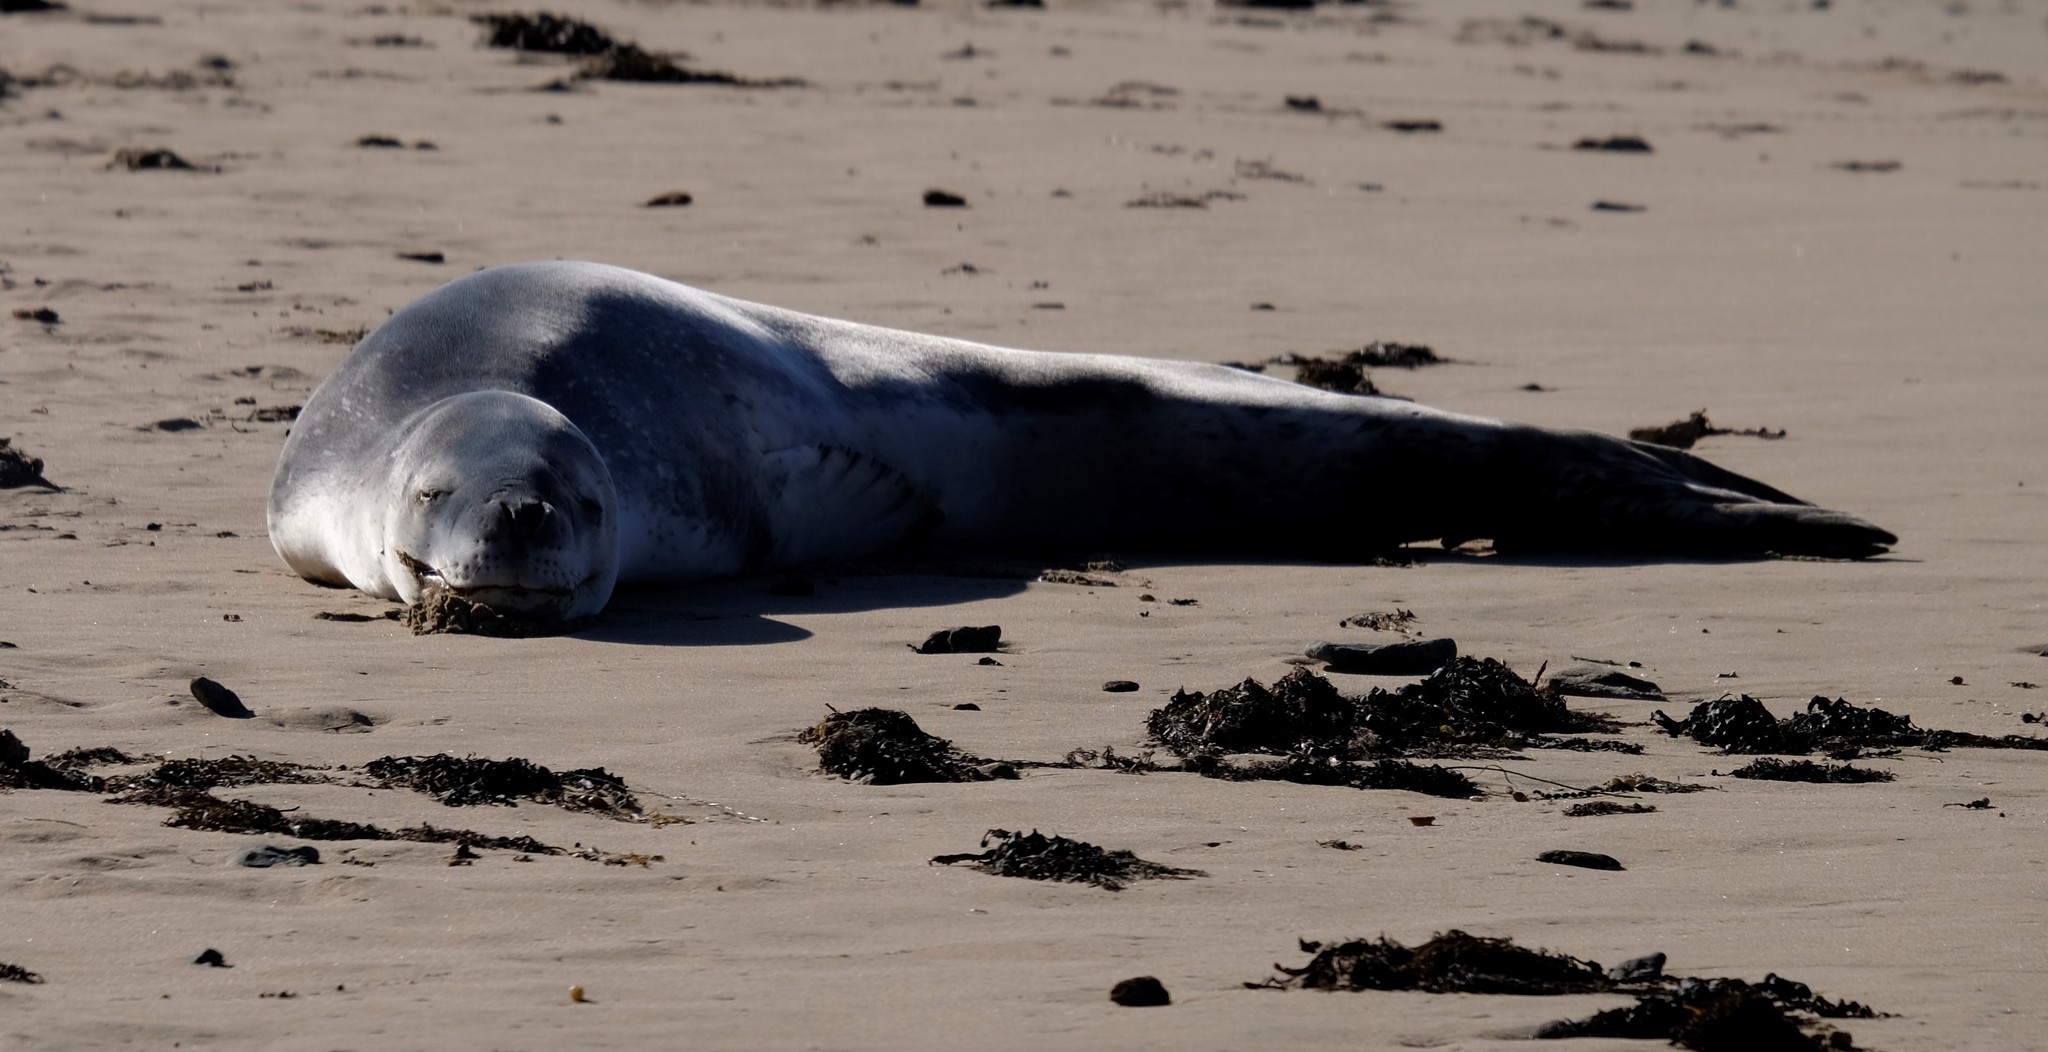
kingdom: Animalia
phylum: Chordata
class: Mammalia
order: Carnivora
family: Phocidae
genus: Hydrurga
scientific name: Hydrurga leptonyx
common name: Leopard seal
